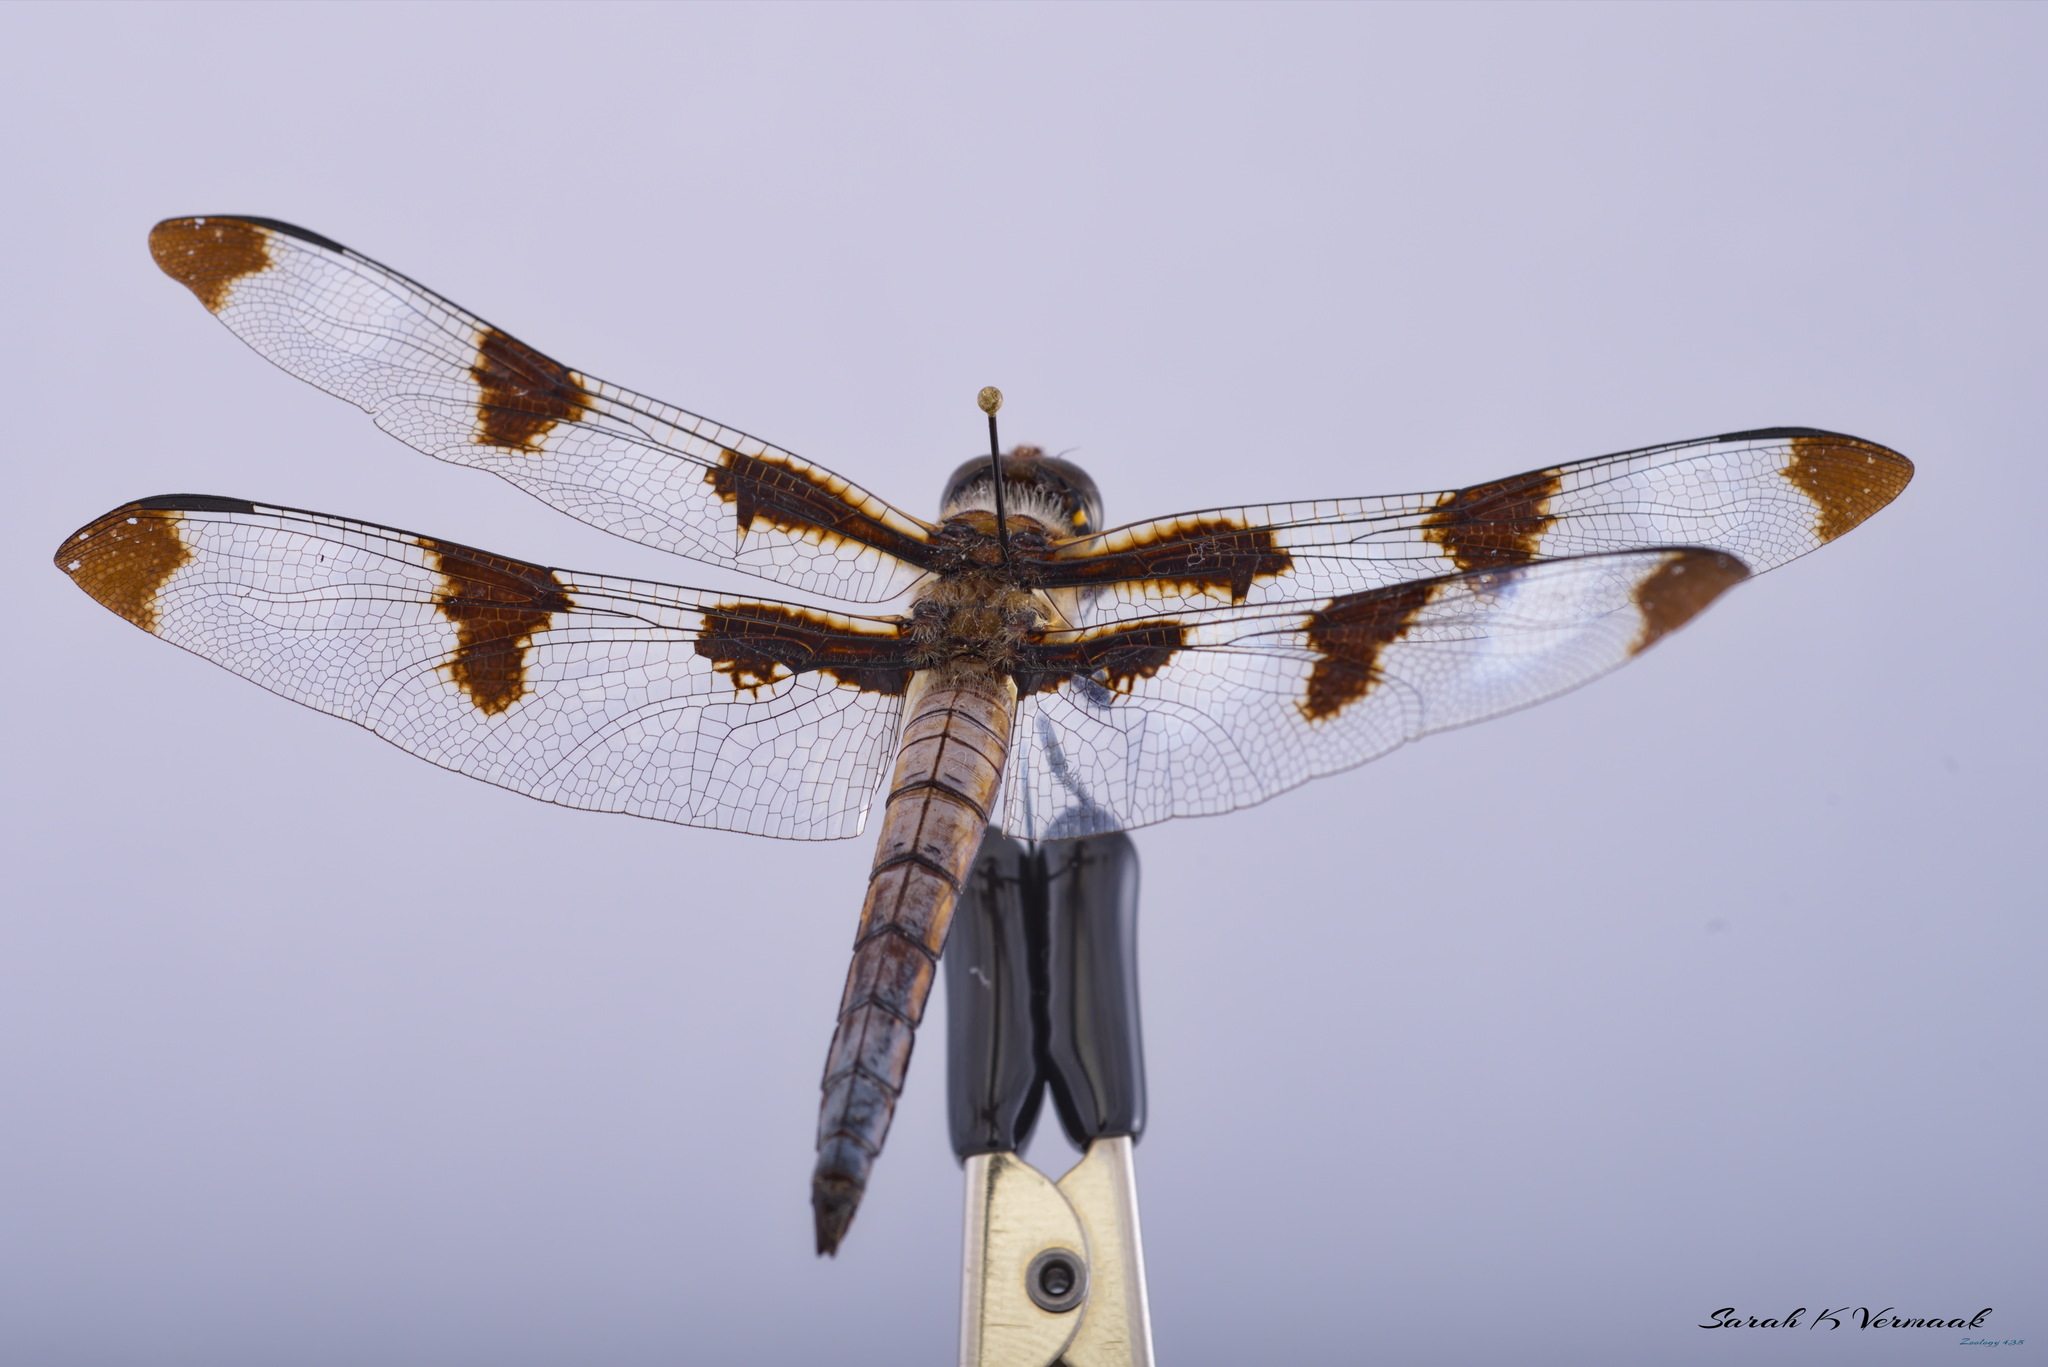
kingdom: Animalia
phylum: Arthropoda
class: Insecta
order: Odonata
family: Libellulidae
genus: Libellula
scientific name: Libellula pulchella
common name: Twelve-spotted skimmer
